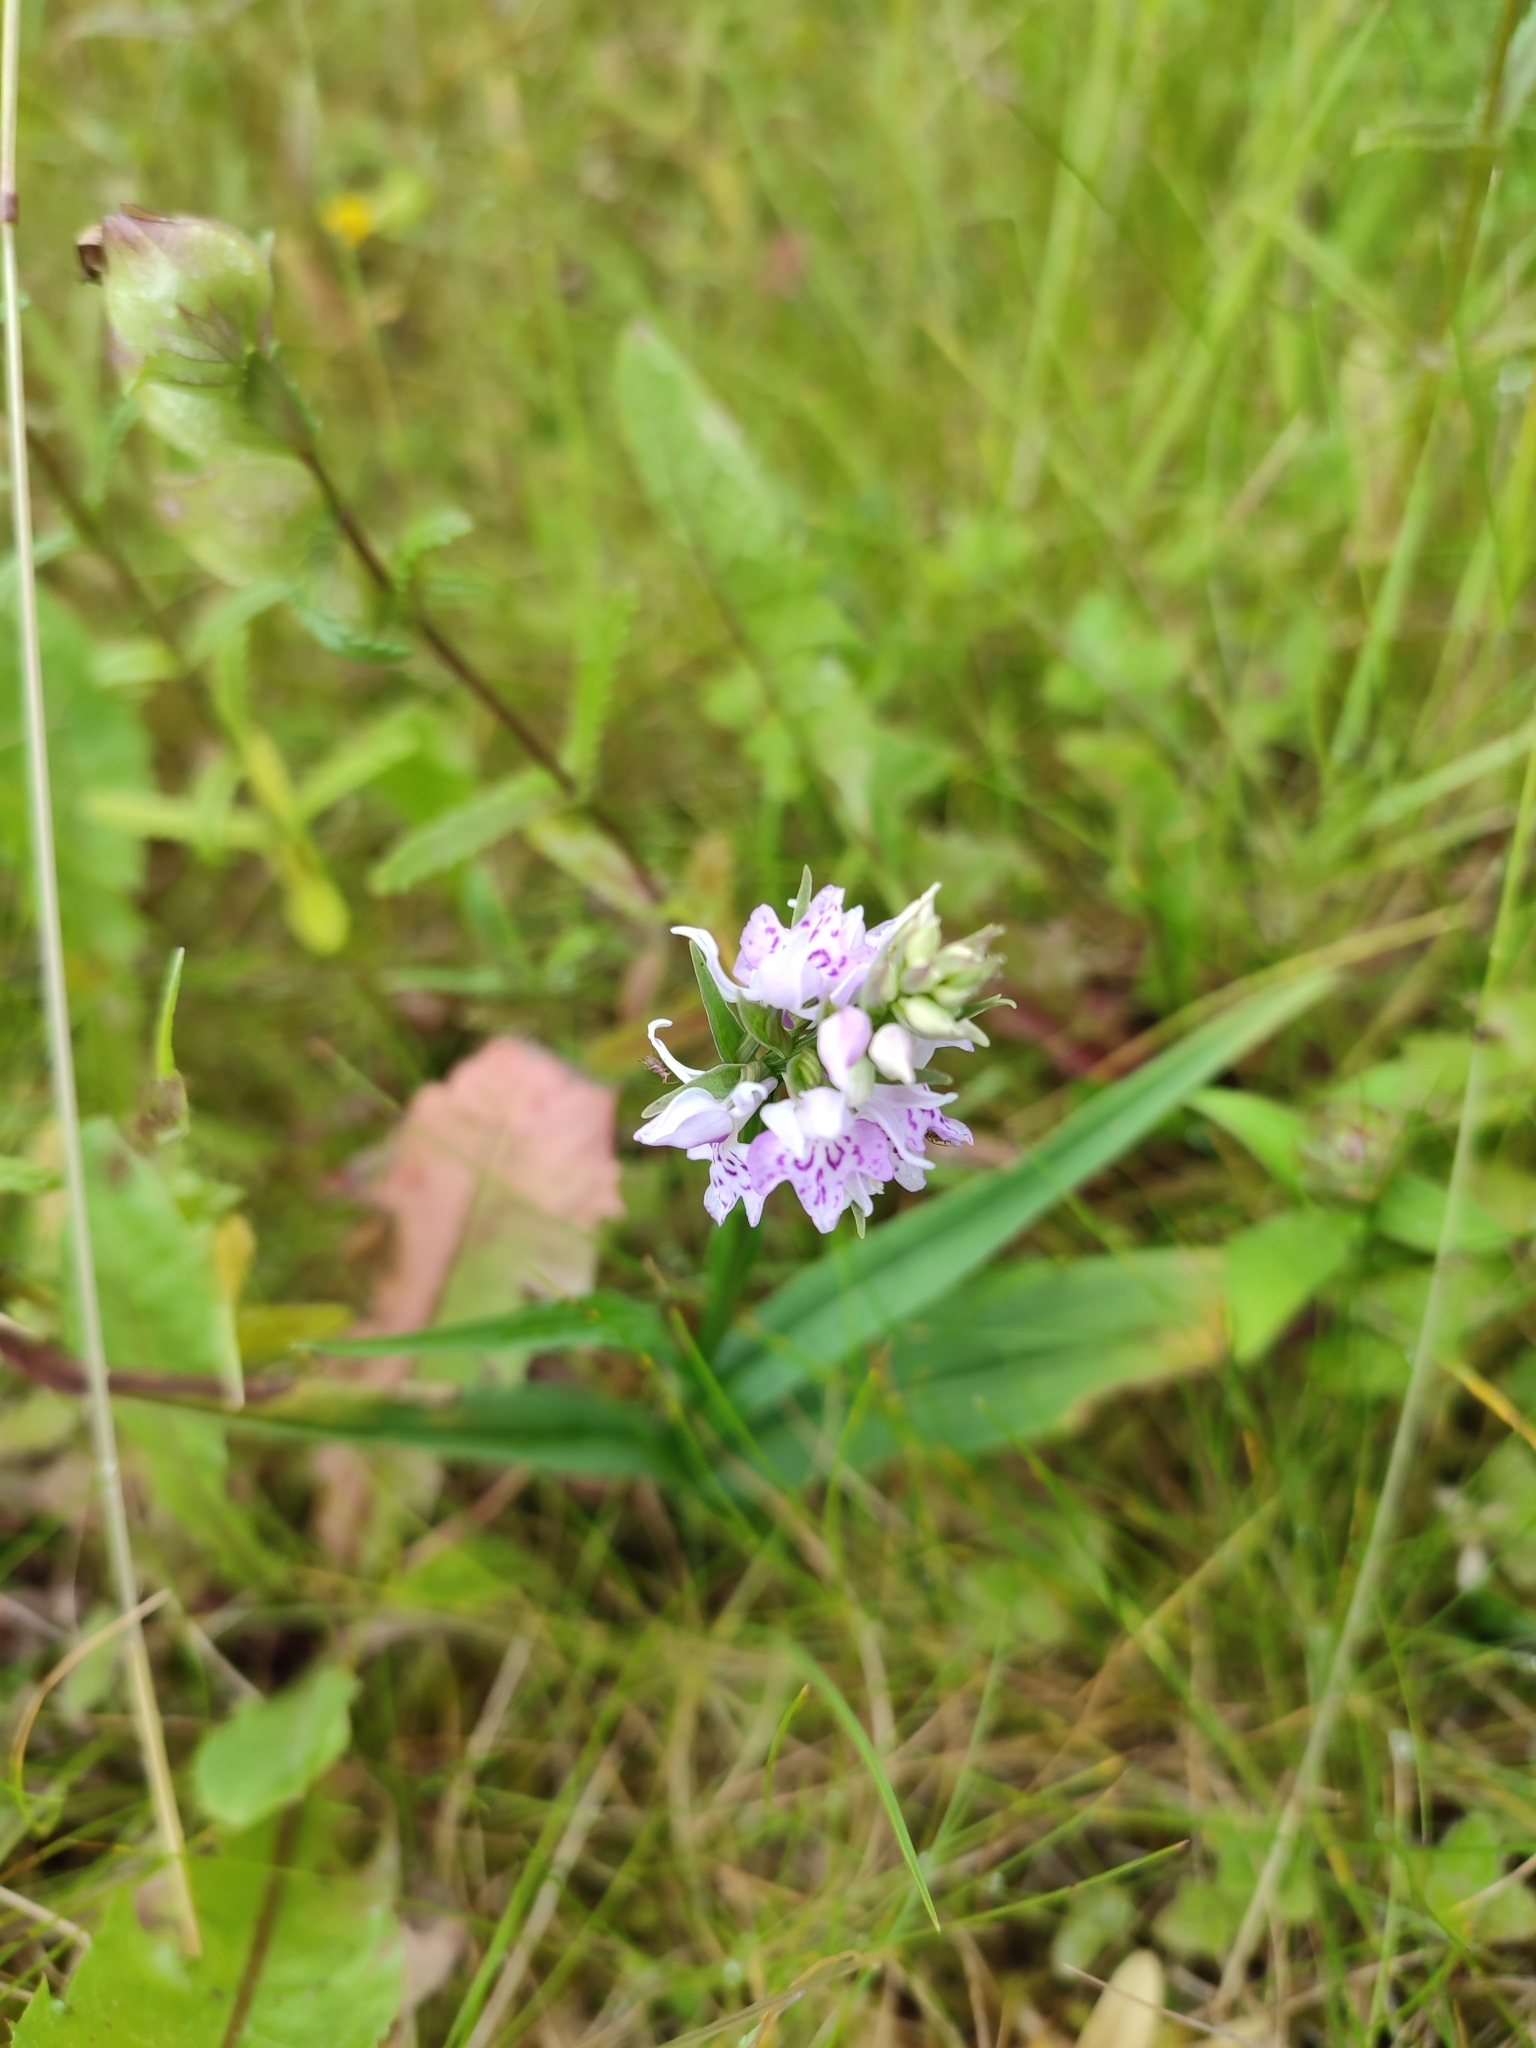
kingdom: Plantae
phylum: Tracheophyta
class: Liliopsida
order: Asparagales
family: Orchidaceae
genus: Dactylorhiza
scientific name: Dactylorhiza maculata
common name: Heath spotted-orchid
